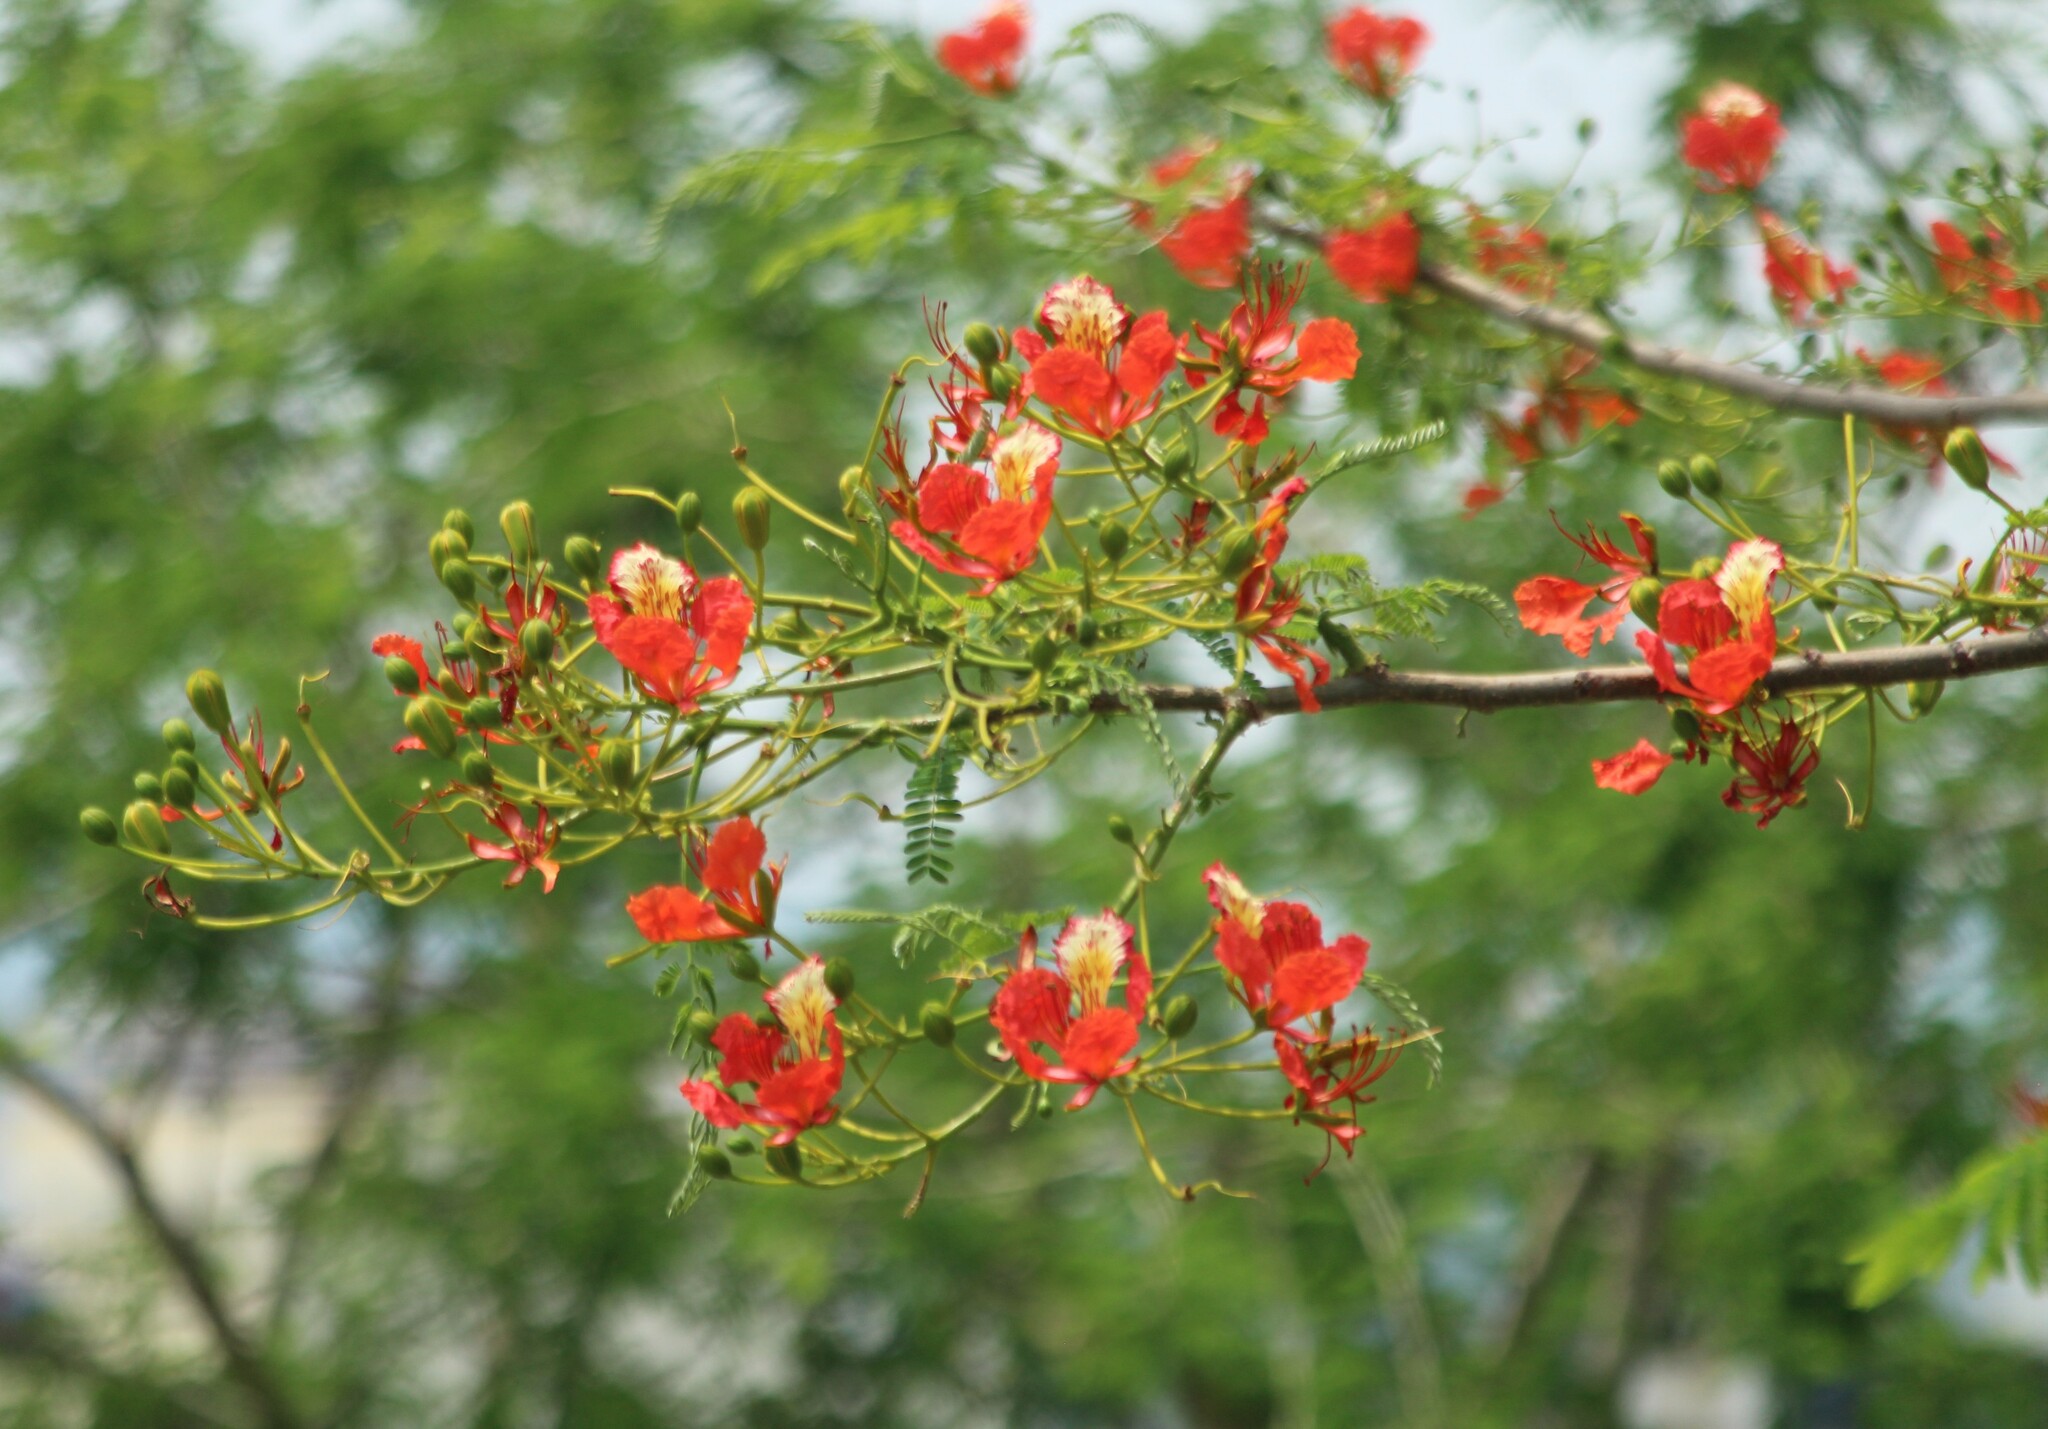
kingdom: Plantae
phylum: Tracheophyta
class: Magnoliopsida
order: Fabales
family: Fabaceae
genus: Delonix
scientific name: Delonix regia
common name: Royal poinciana
